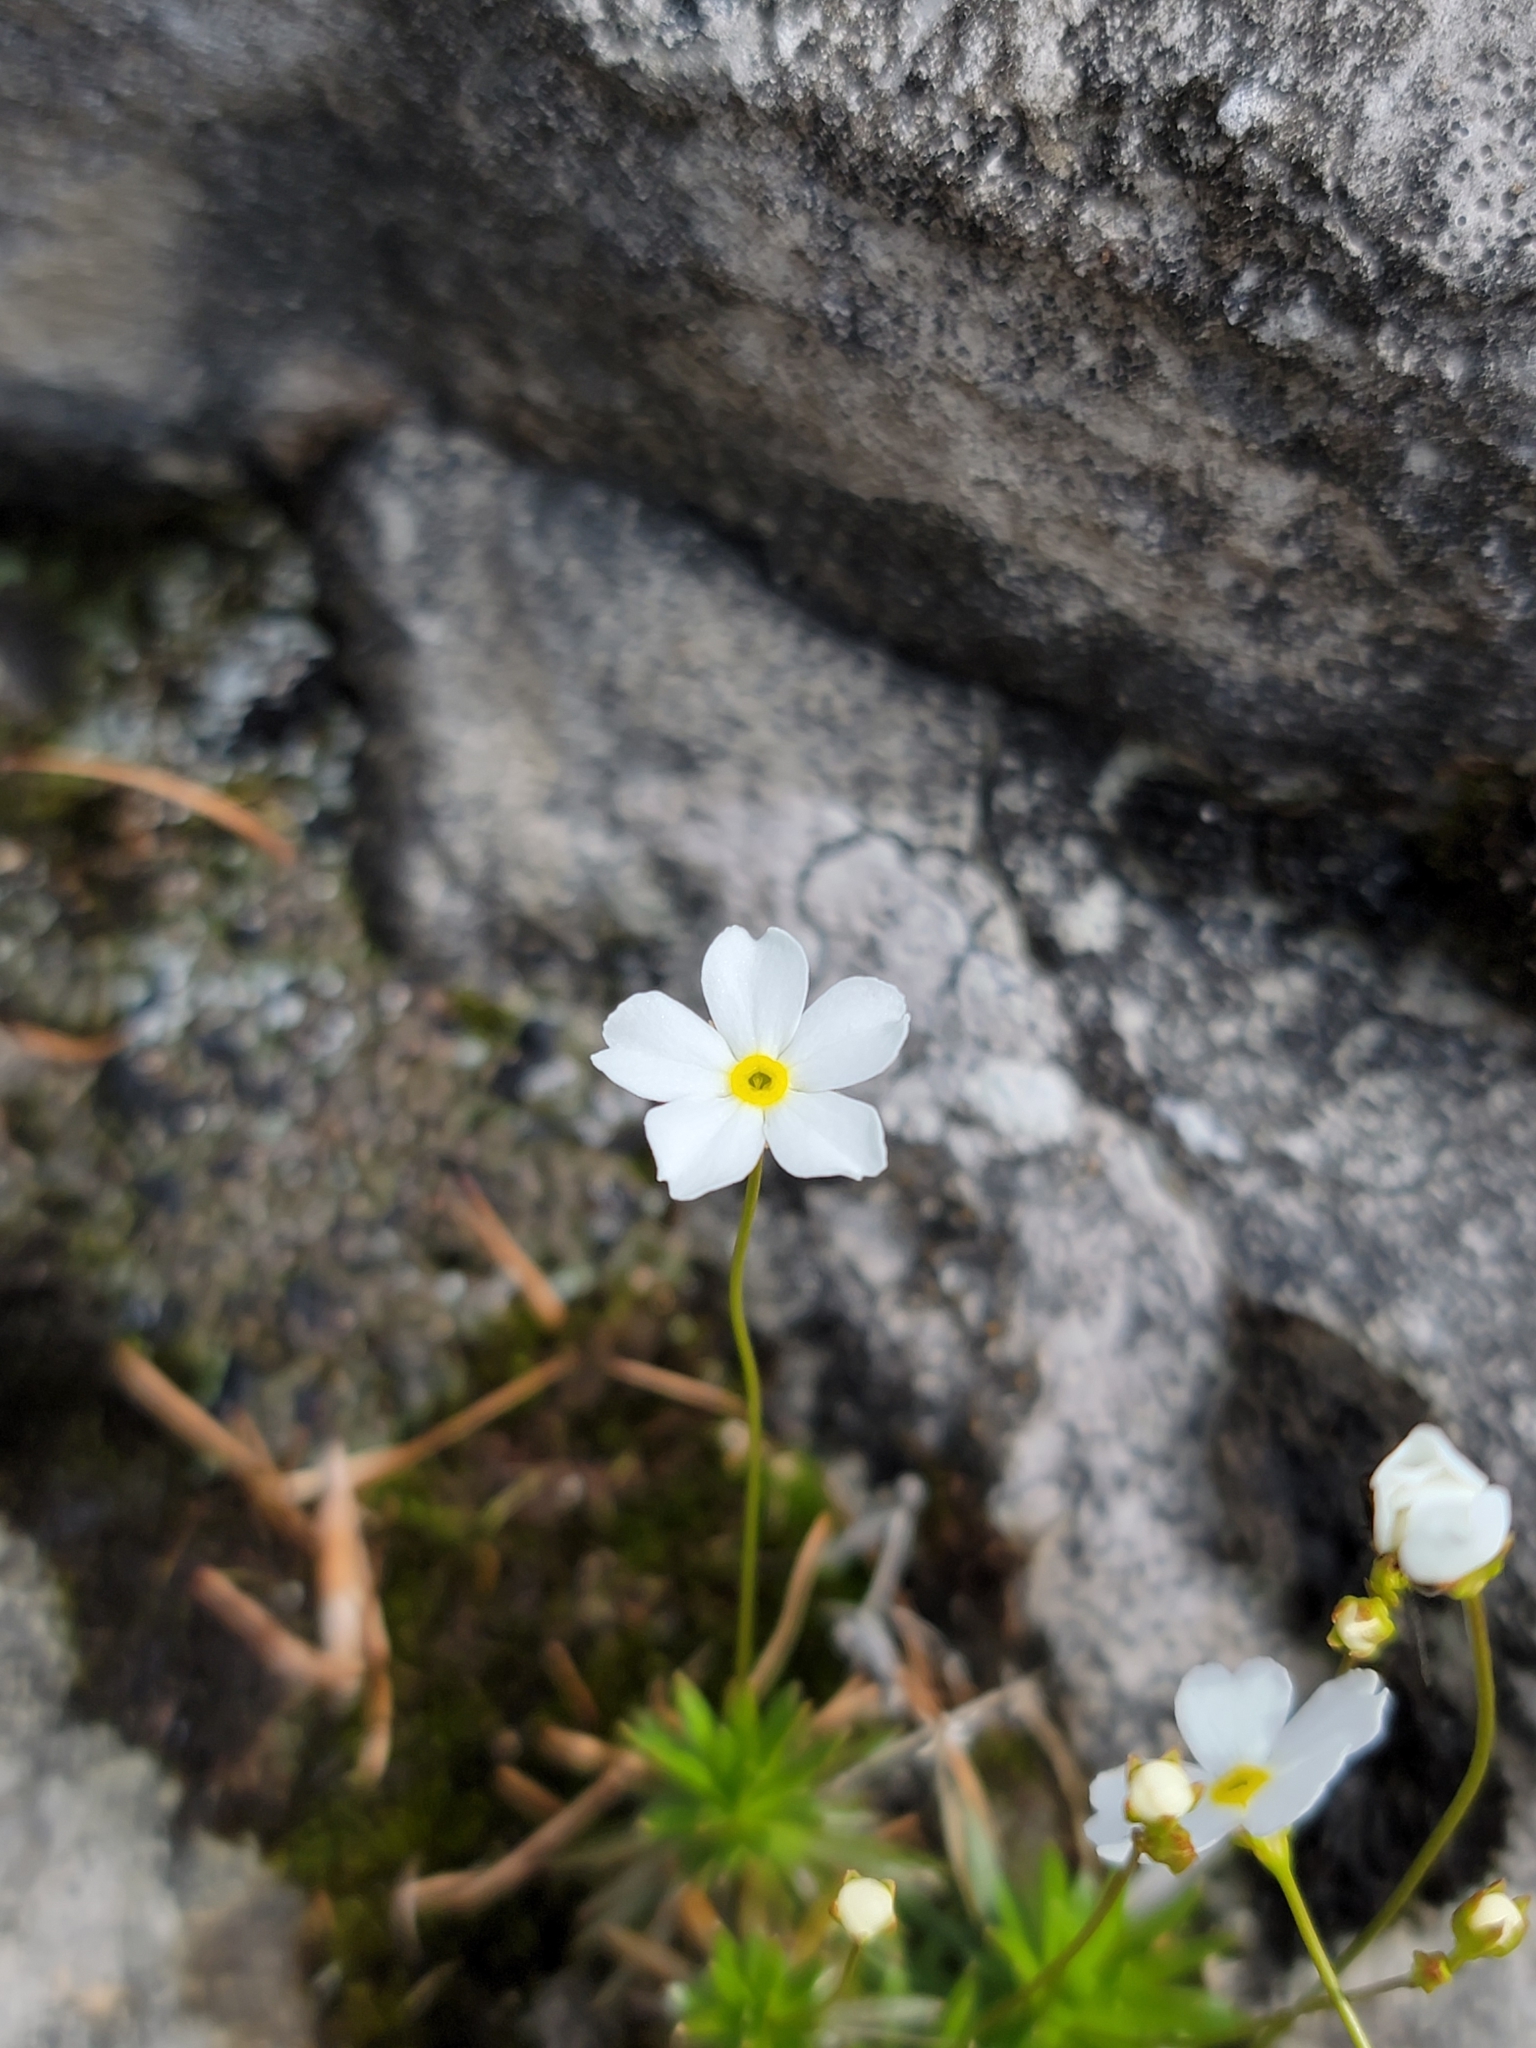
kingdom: Plantae
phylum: Tracheophyta
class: Magnoliopsida
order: Ericales
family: Primulaceae
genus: Androsace
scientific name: Androsace lactea
